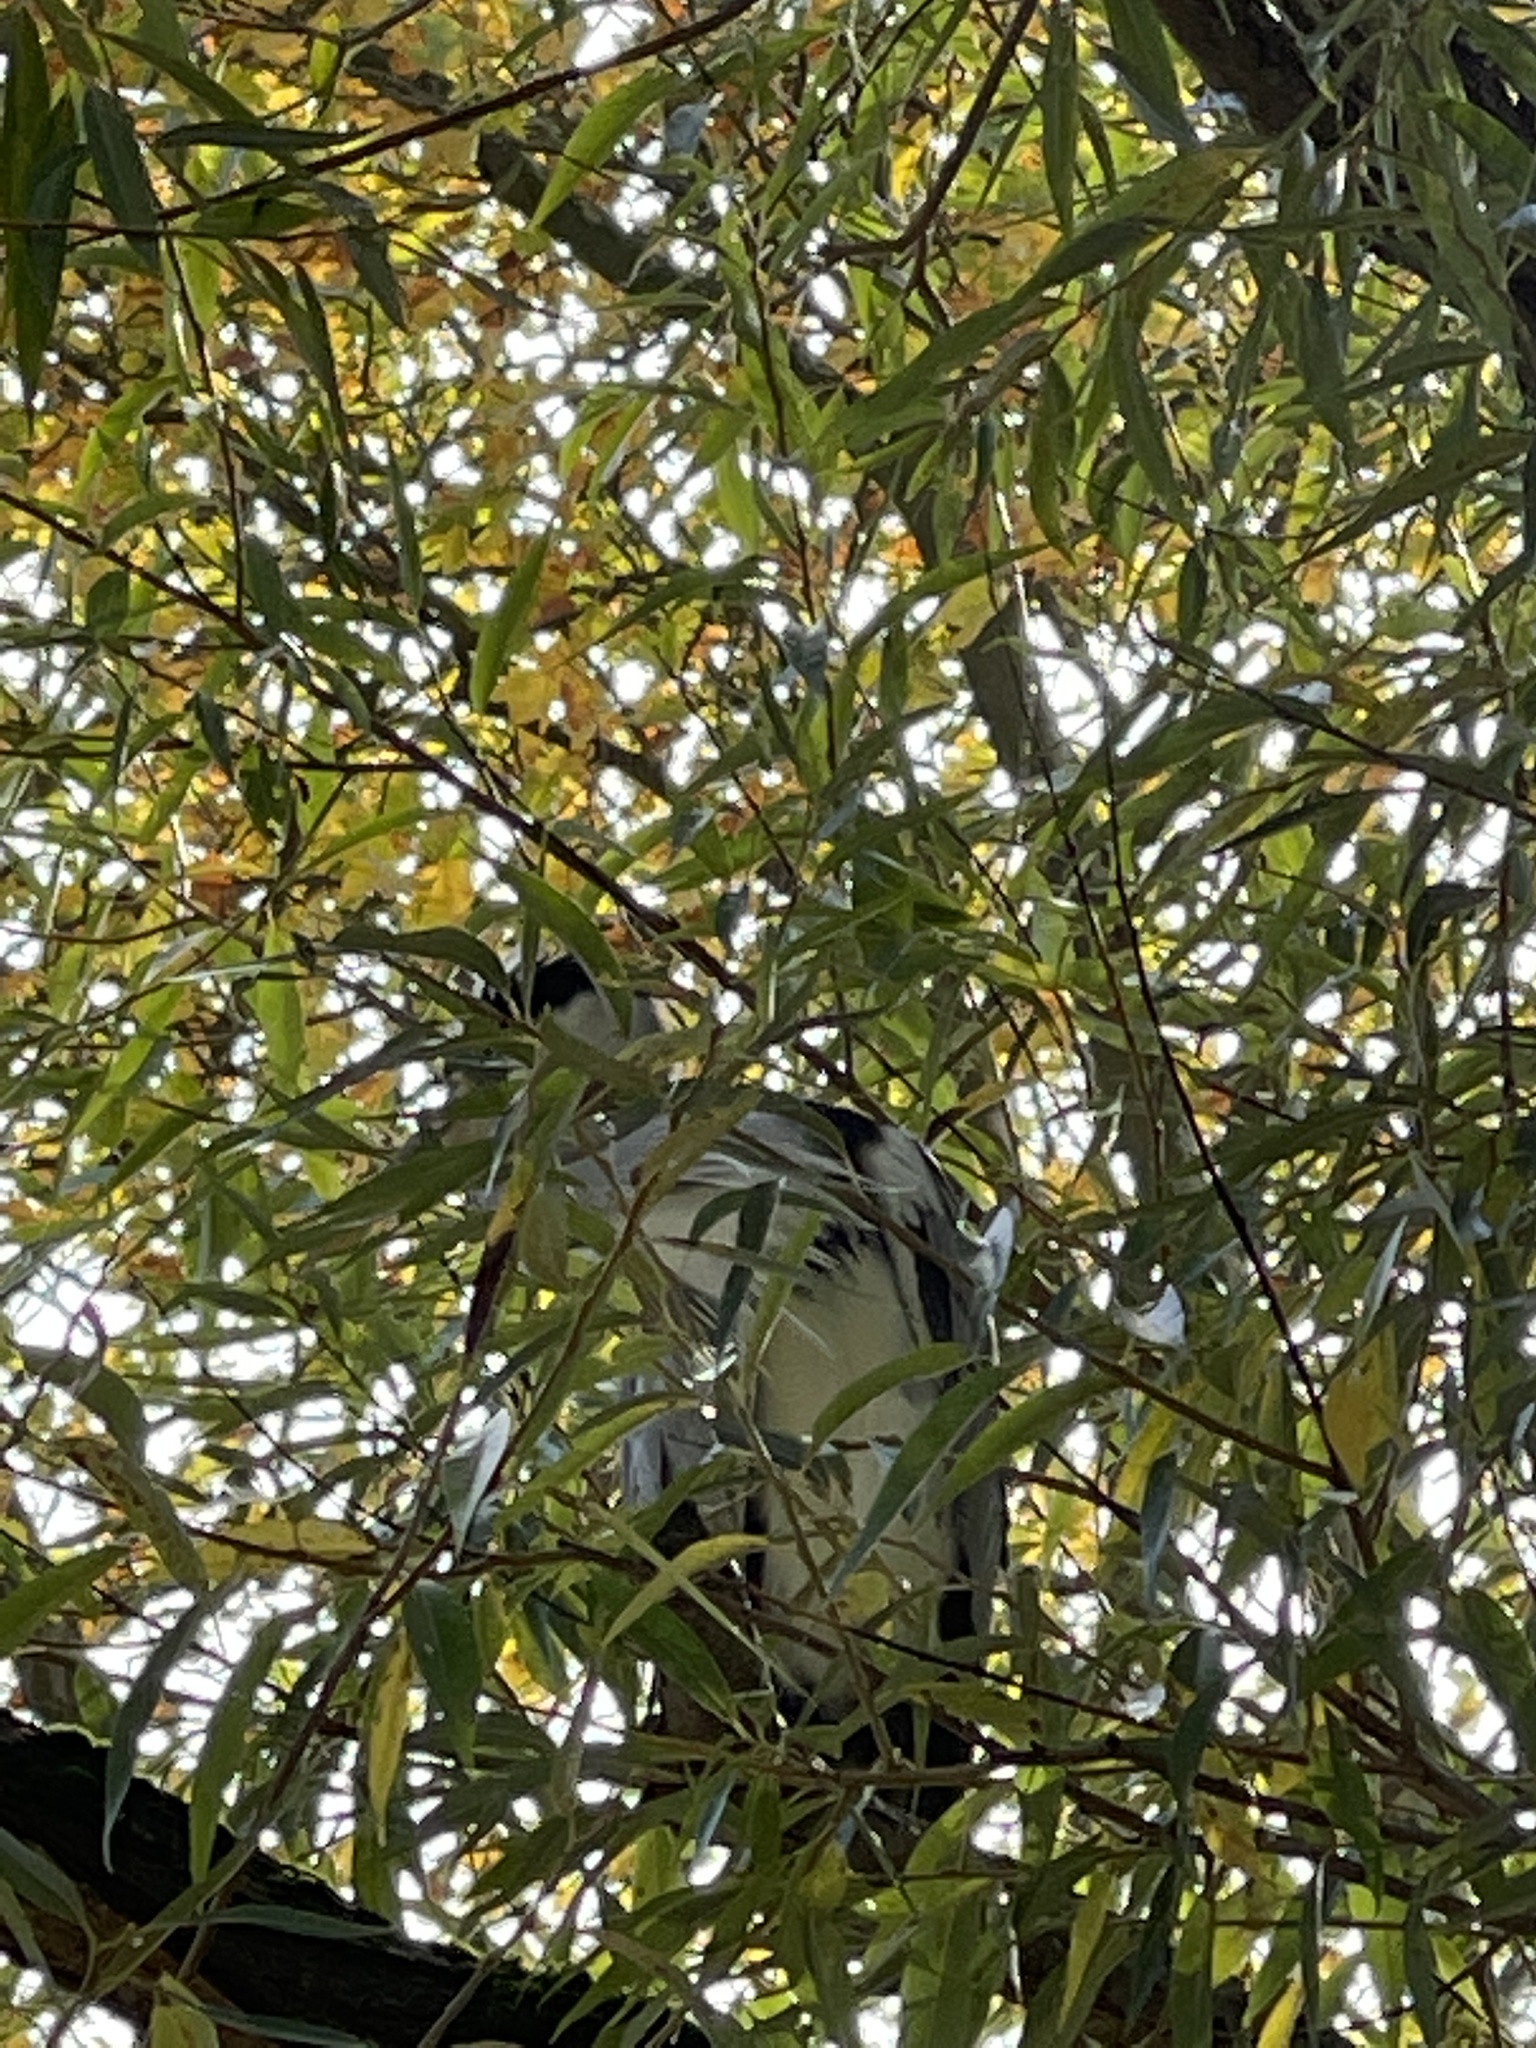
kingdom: Animalia
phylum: Chordata
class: Aves
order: Pelecaniformes
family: Ardeidae
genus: Ardea
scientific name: Ardea cinerea
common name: Grey heron
